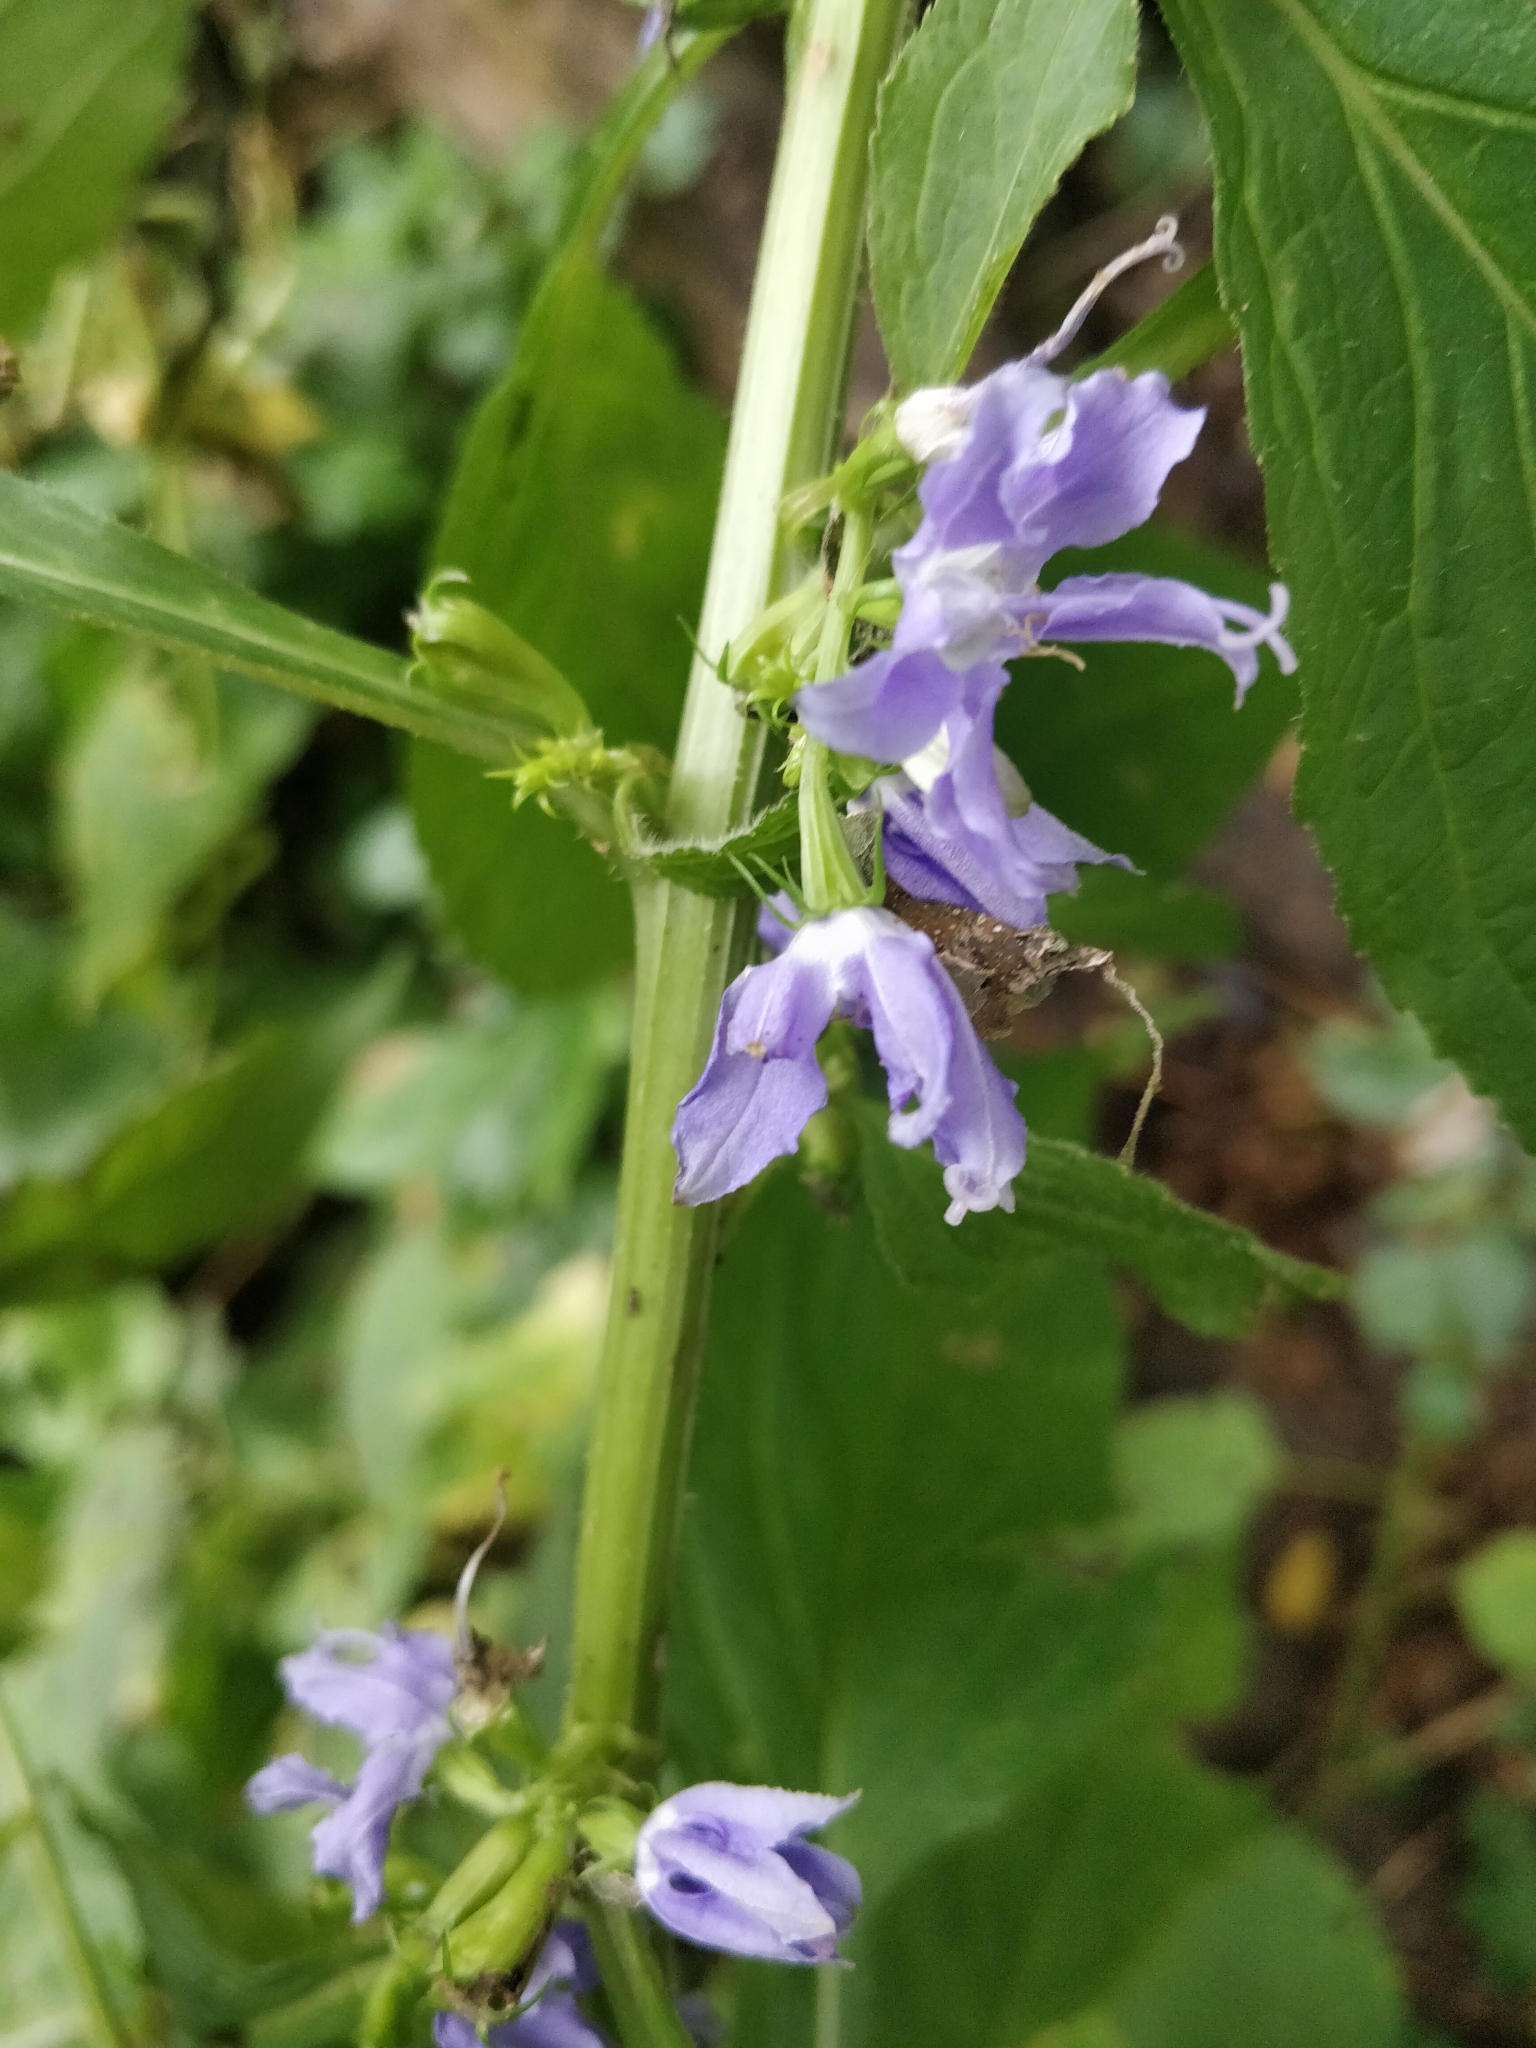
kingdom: Plantae
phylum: Tracheophyta
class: Magnoliopsida
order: Asterales
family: Campanulaceae
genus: Campanulastrum
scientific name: Campanulastrum americanum
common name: American bellflower
